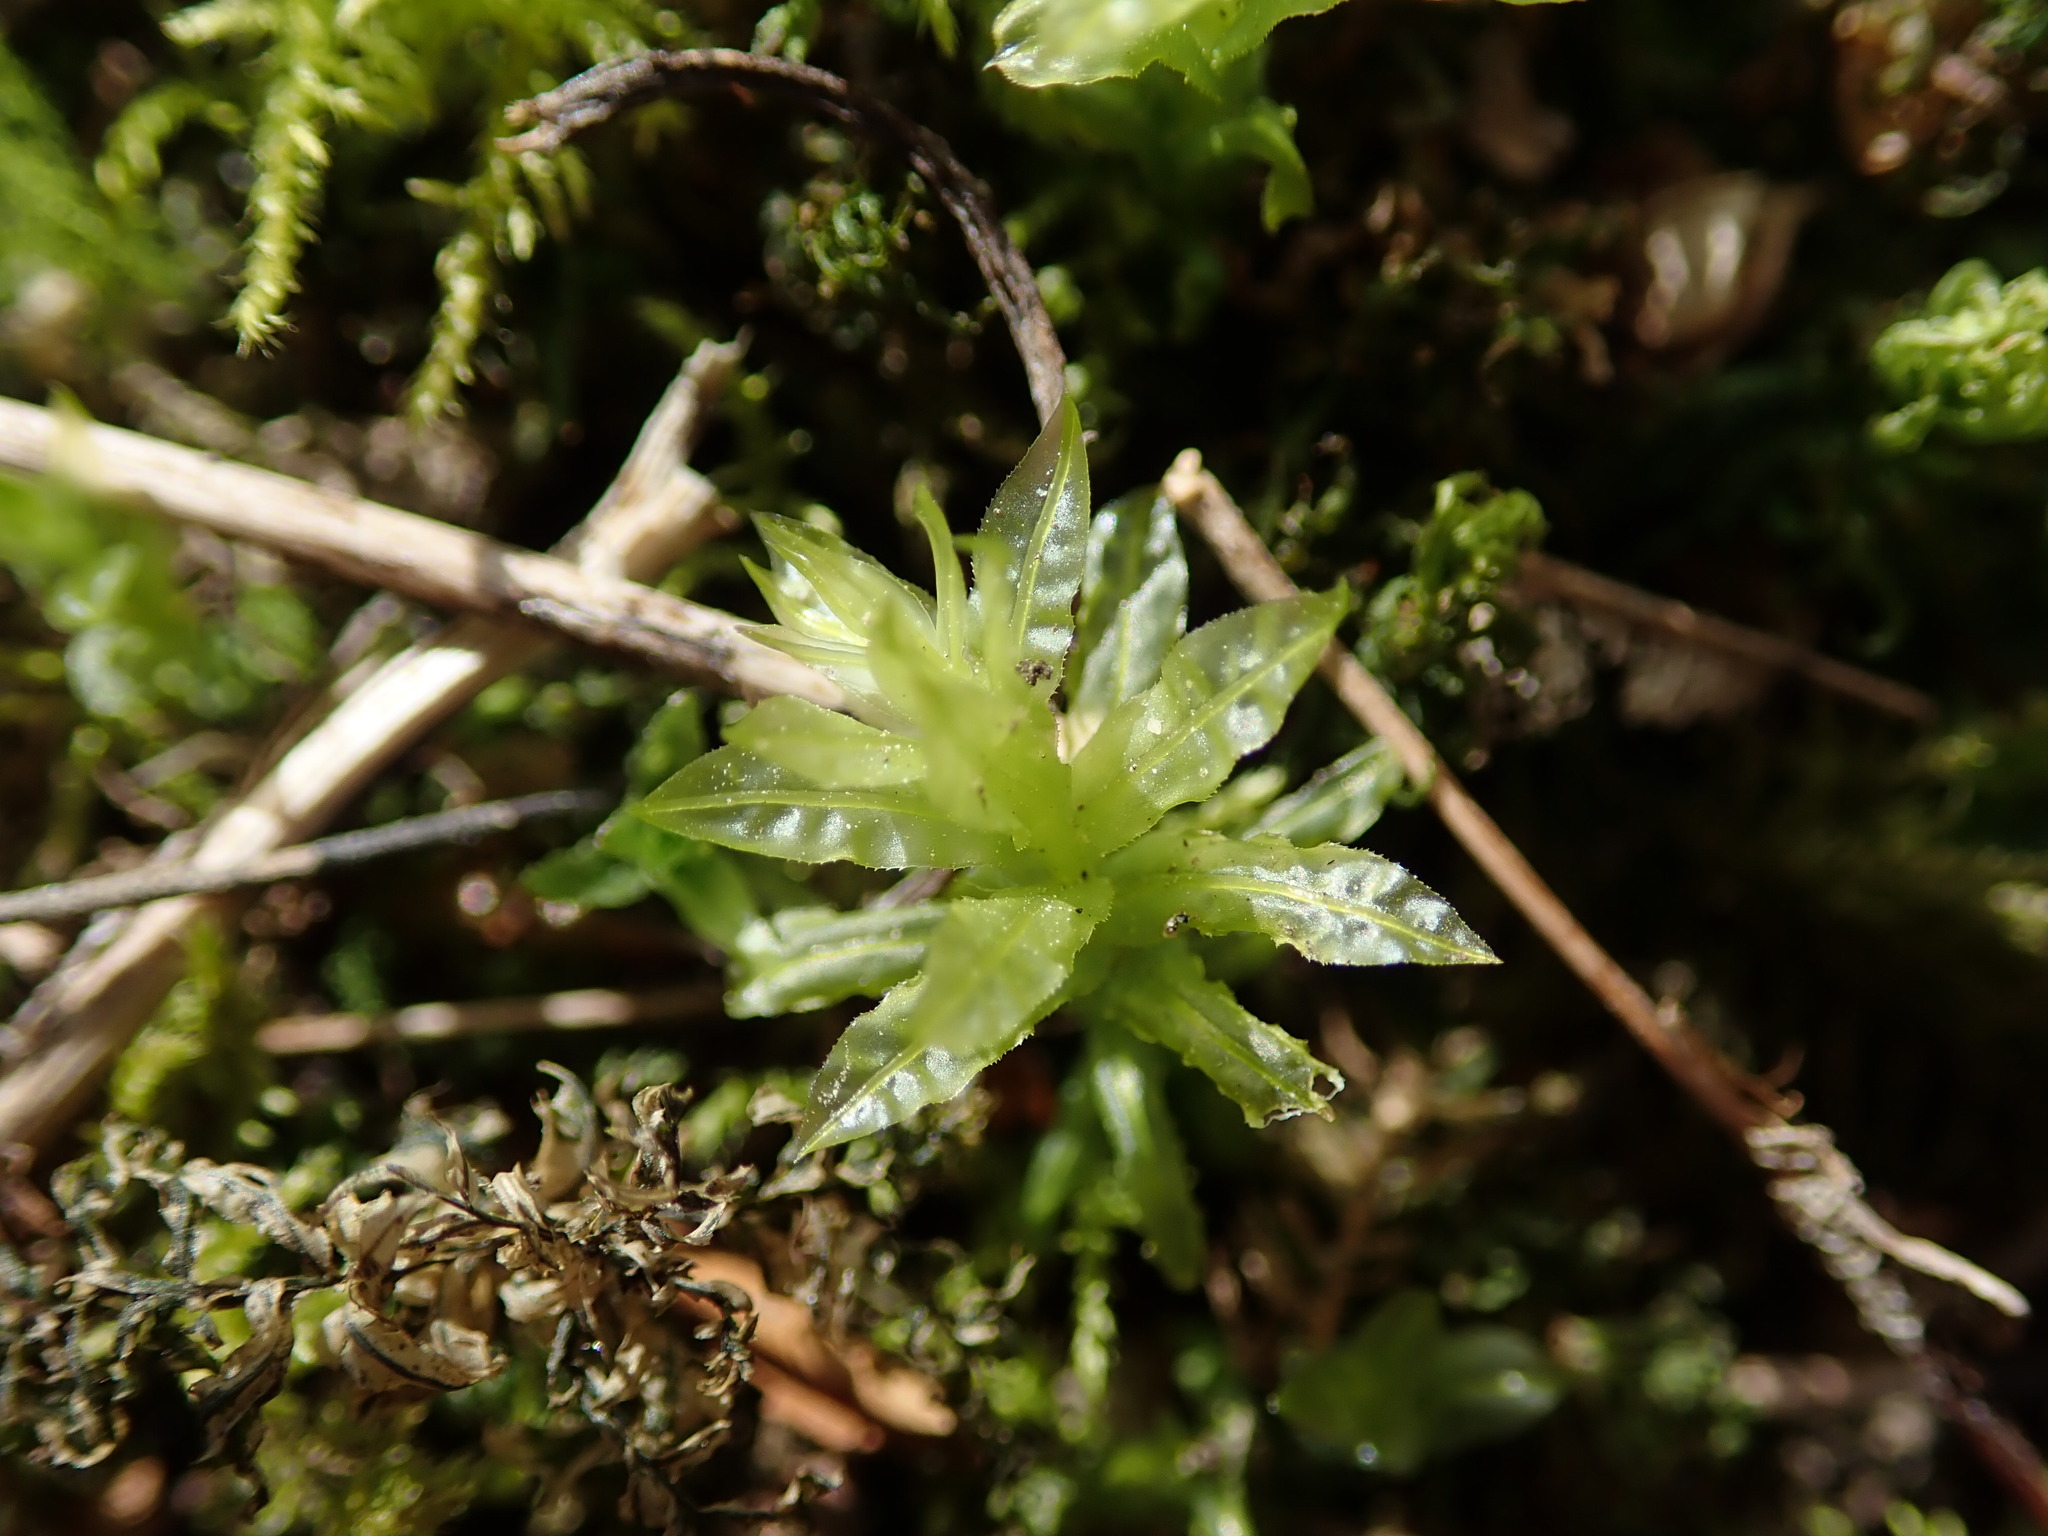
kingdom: Plantae
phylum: Bryophyta
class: Bryopsida
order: Bryales
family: Mniaceae
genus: Plagiomnium
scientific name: Plagiomnium undulatum
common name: Hart's-tongue thyme-moss
